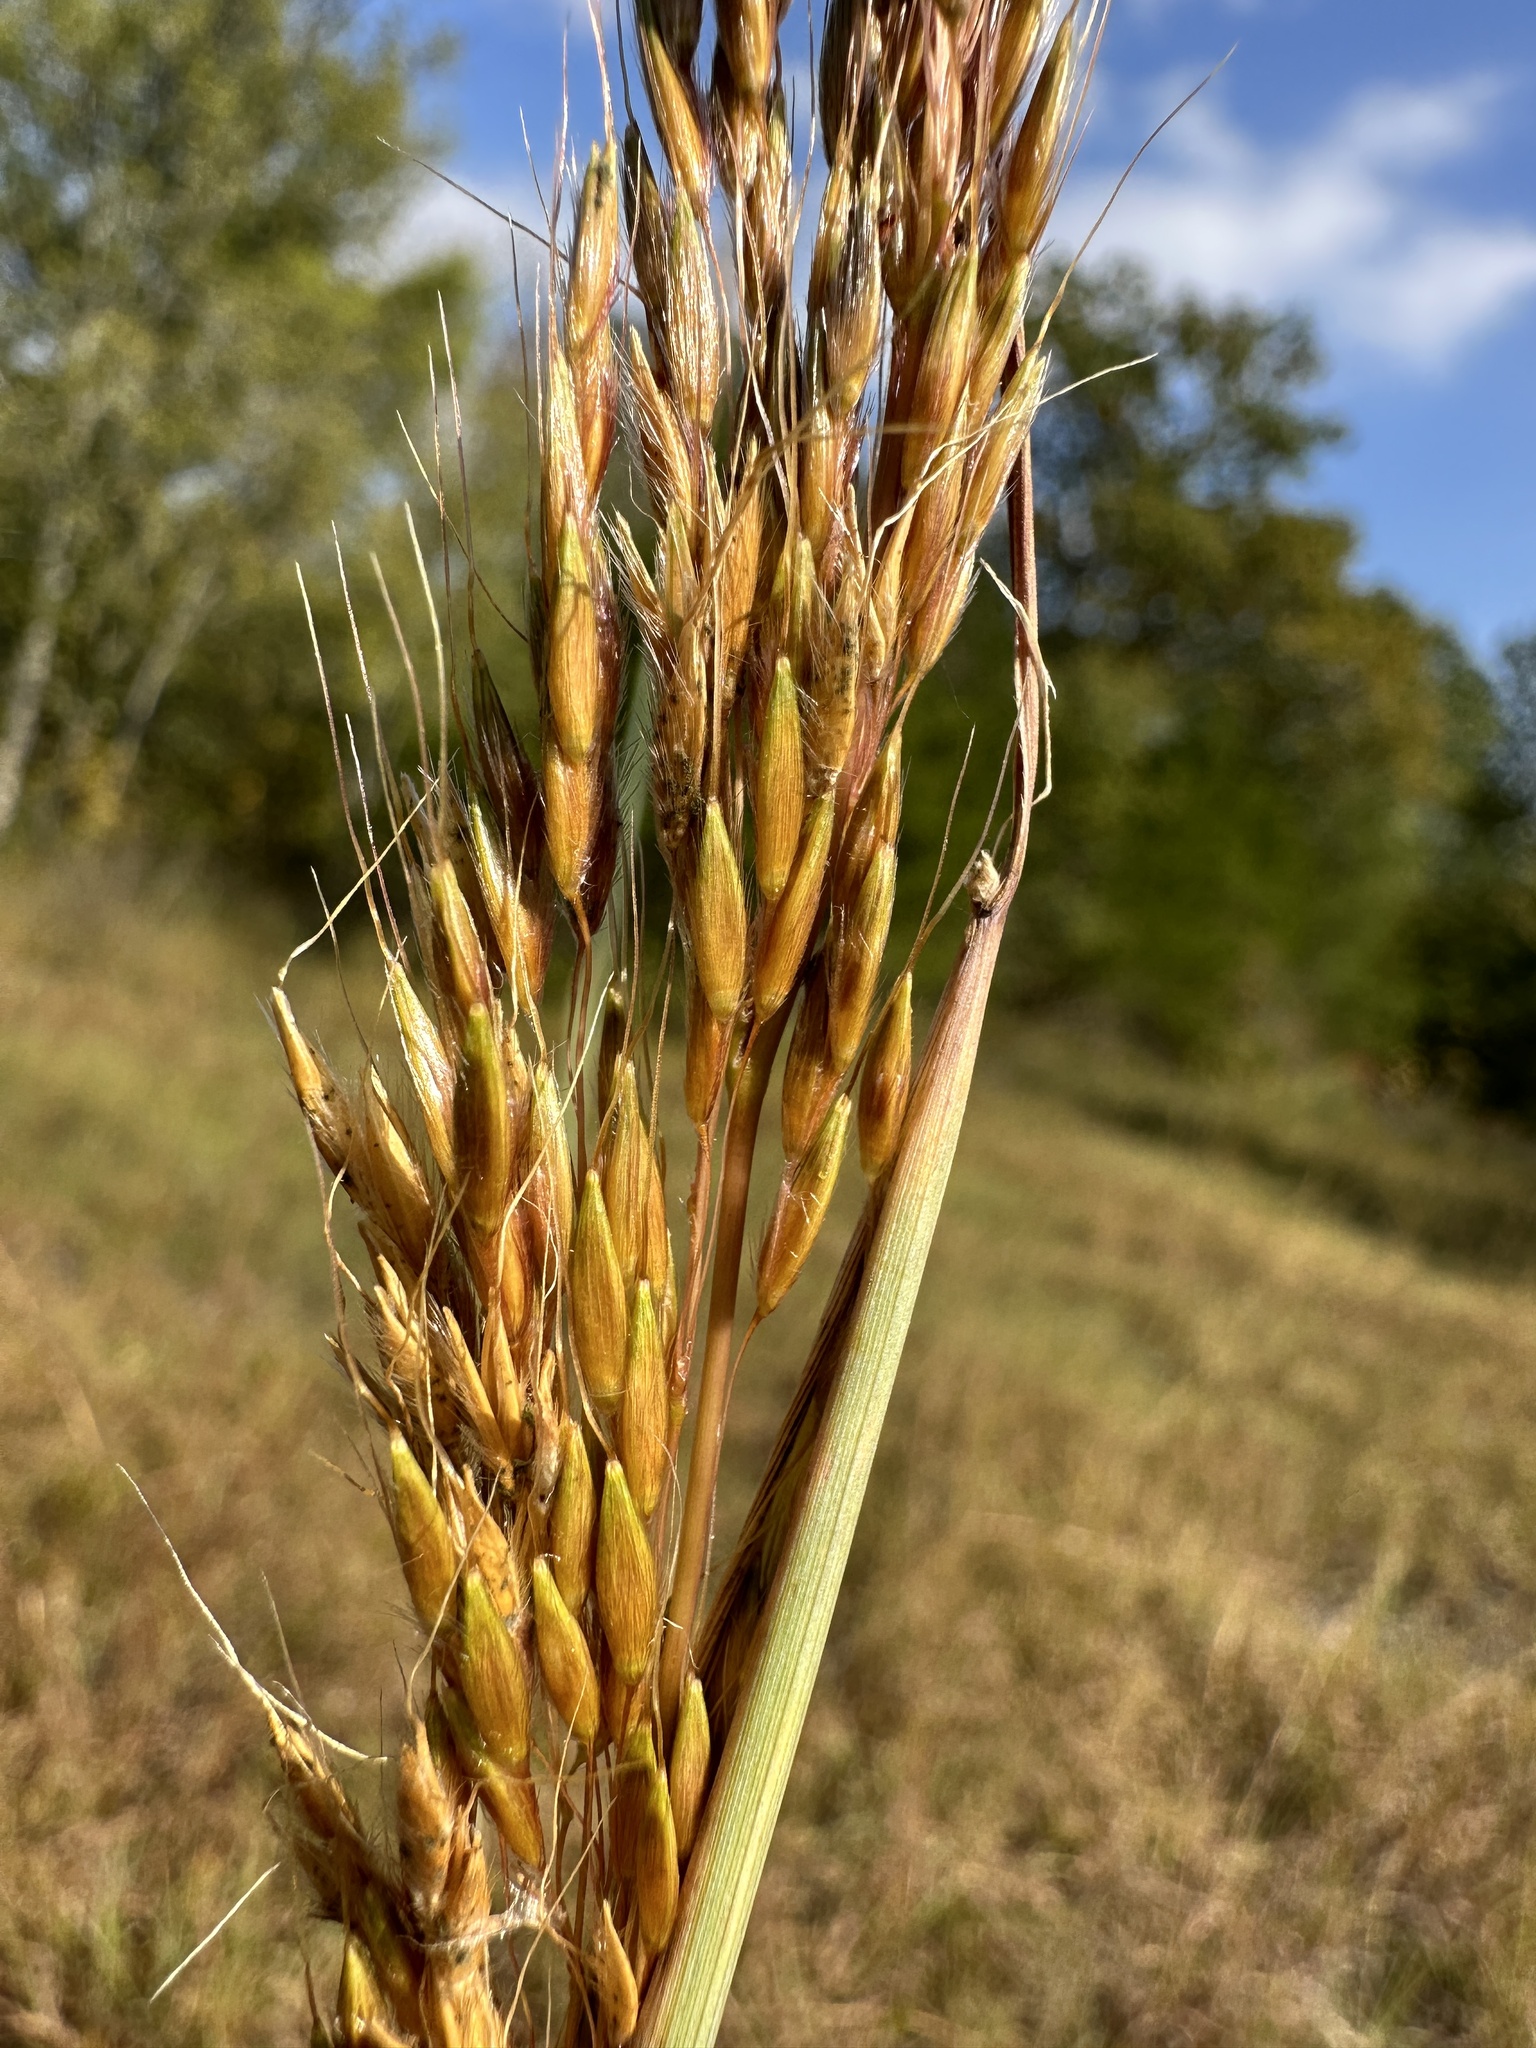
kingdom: Plantae
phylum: Tracheophyta
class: Liliopsida
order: Poales
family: Poaceae
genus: Sorghastrum
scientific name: Sorghastrum nutans
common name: Indian grass
